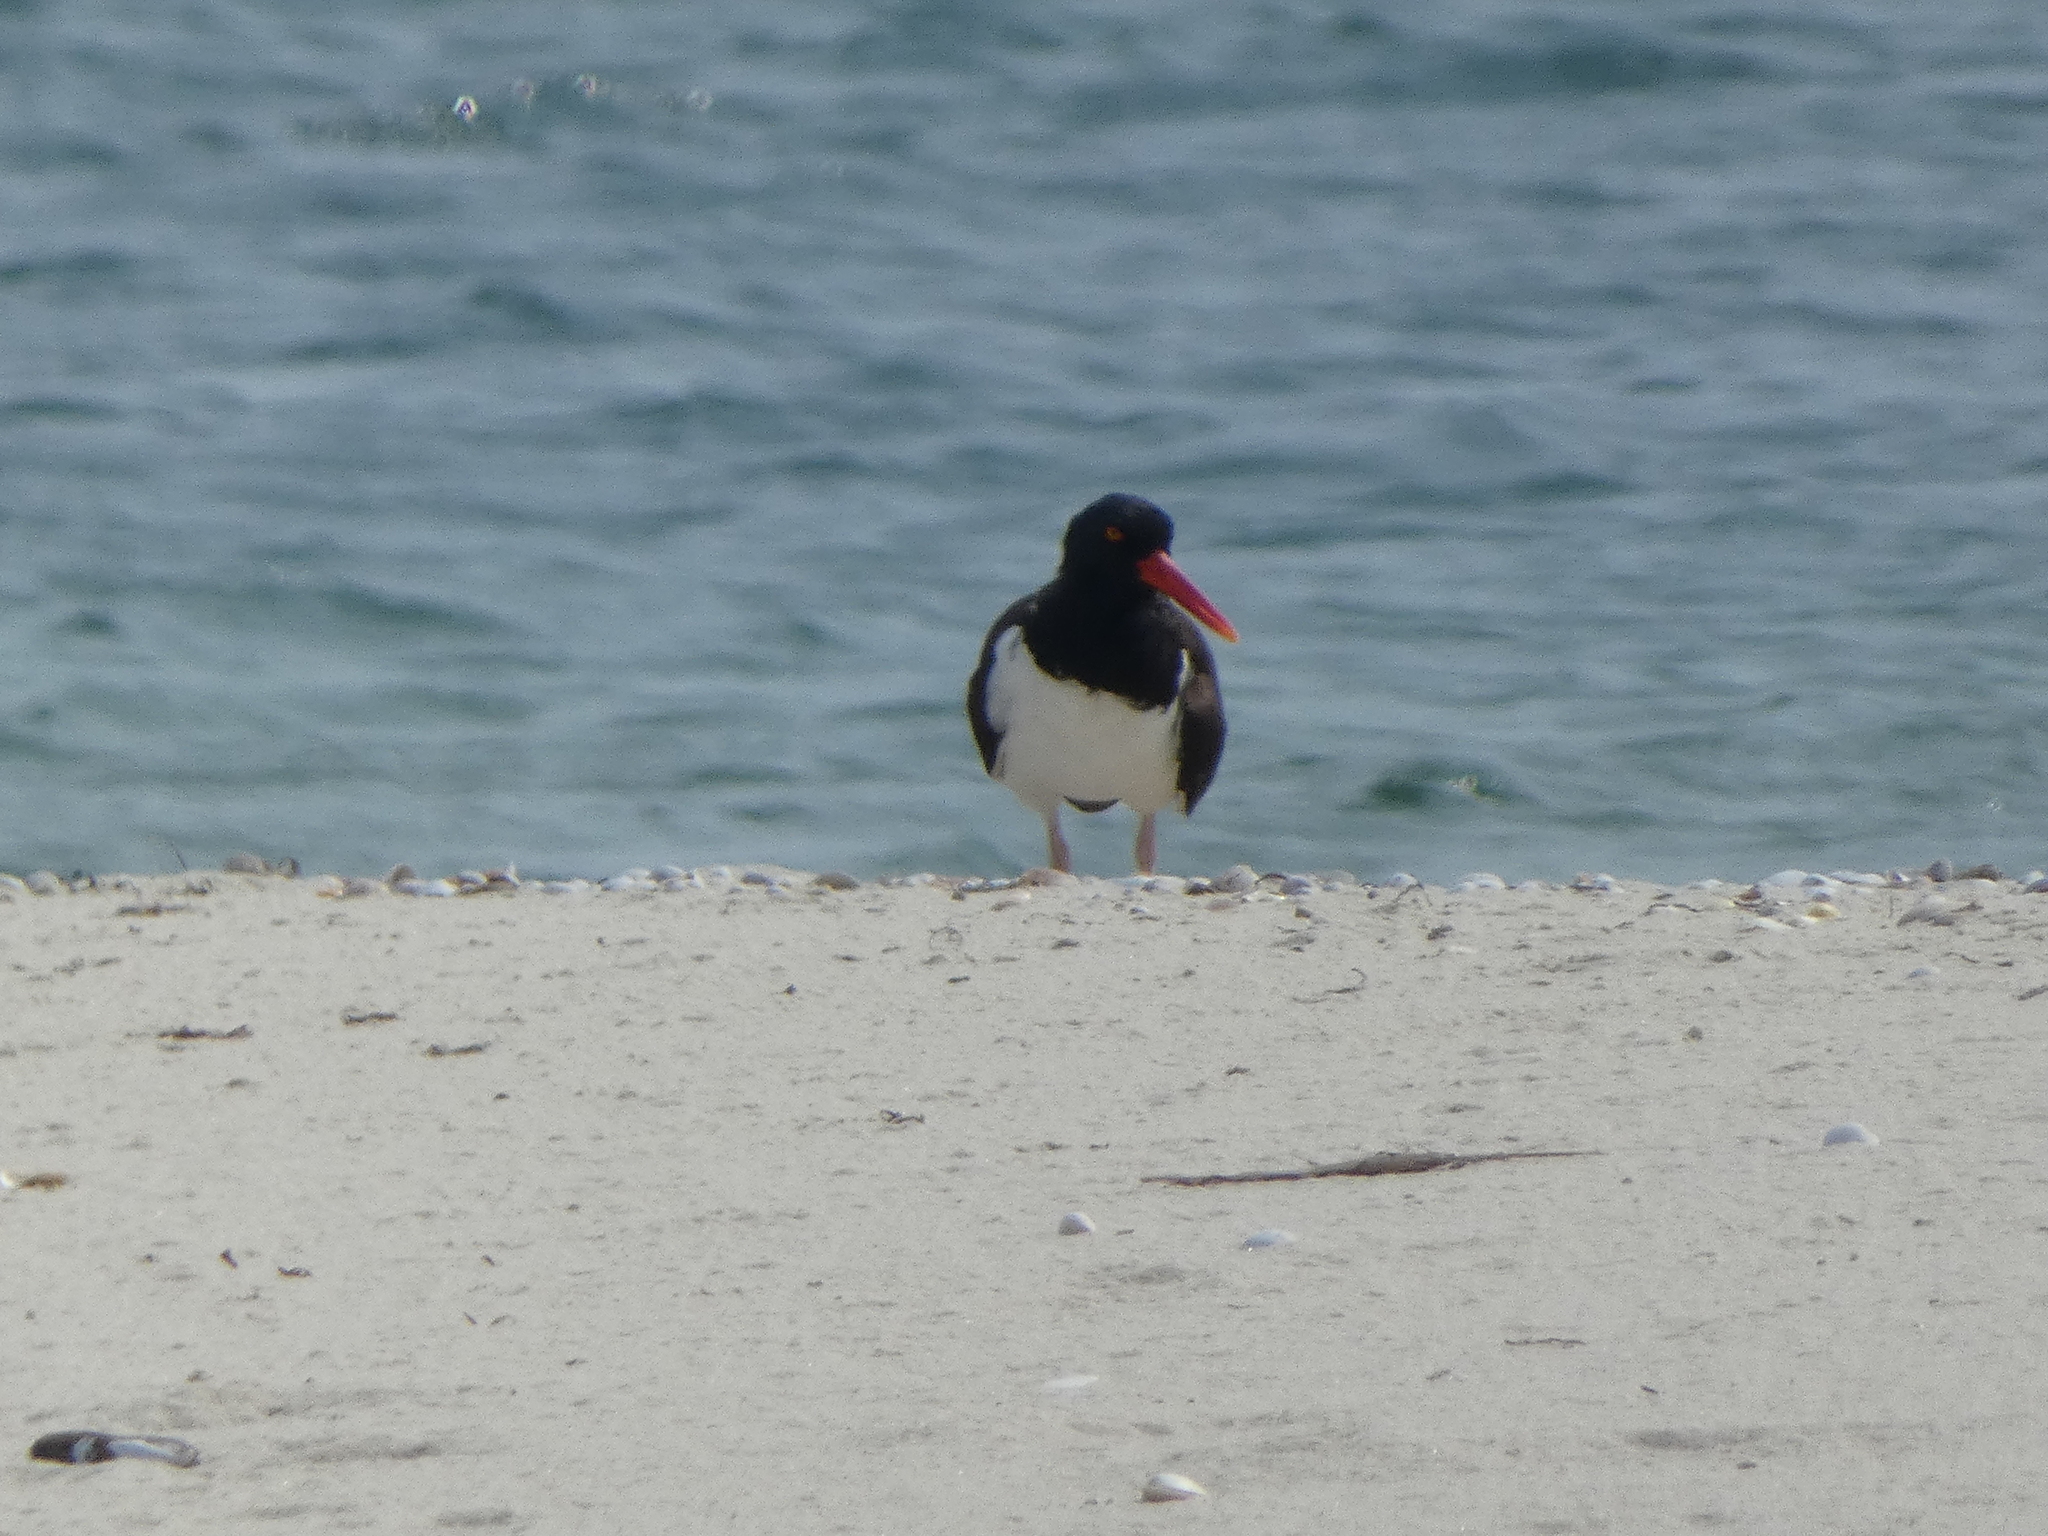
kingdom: Animalia
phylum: Chordata
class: Aves
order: Charadriiformes
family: Haematopodidae
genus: Haematopus
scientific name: Haematopus palliatus
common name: American oystercatcher
